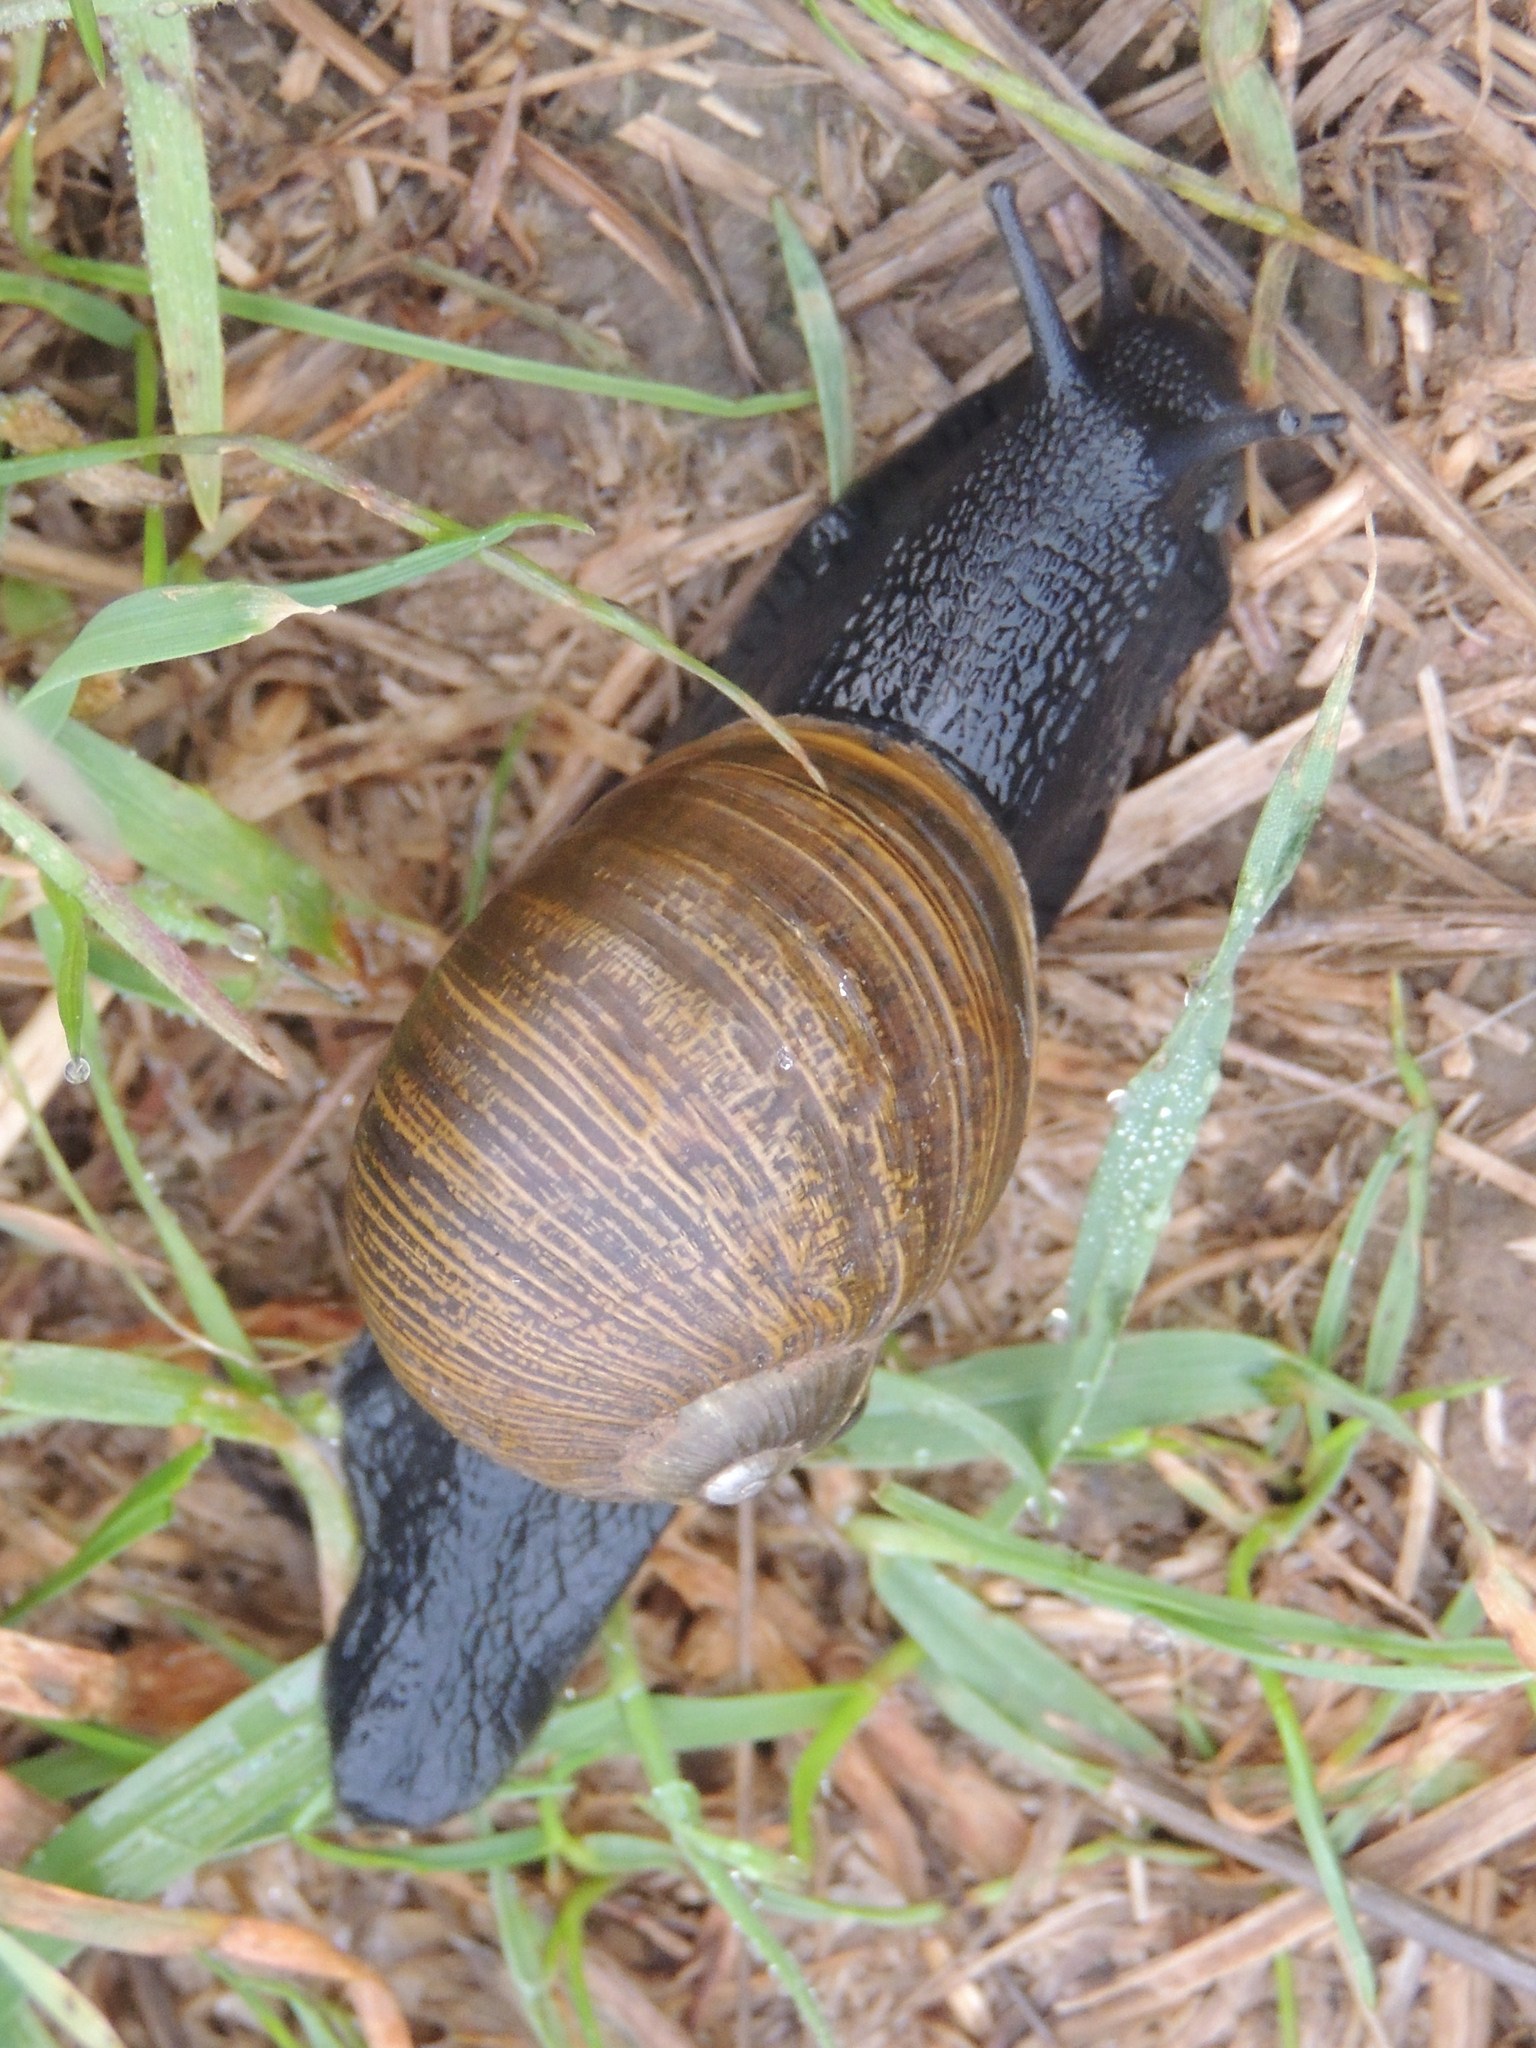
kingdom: Animalia
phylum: Mollusca
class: Gastropoda
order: Stylommatophora
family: Helicidae
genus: Cantareus
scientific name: Cantareus apertus
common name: Green gardensnail
